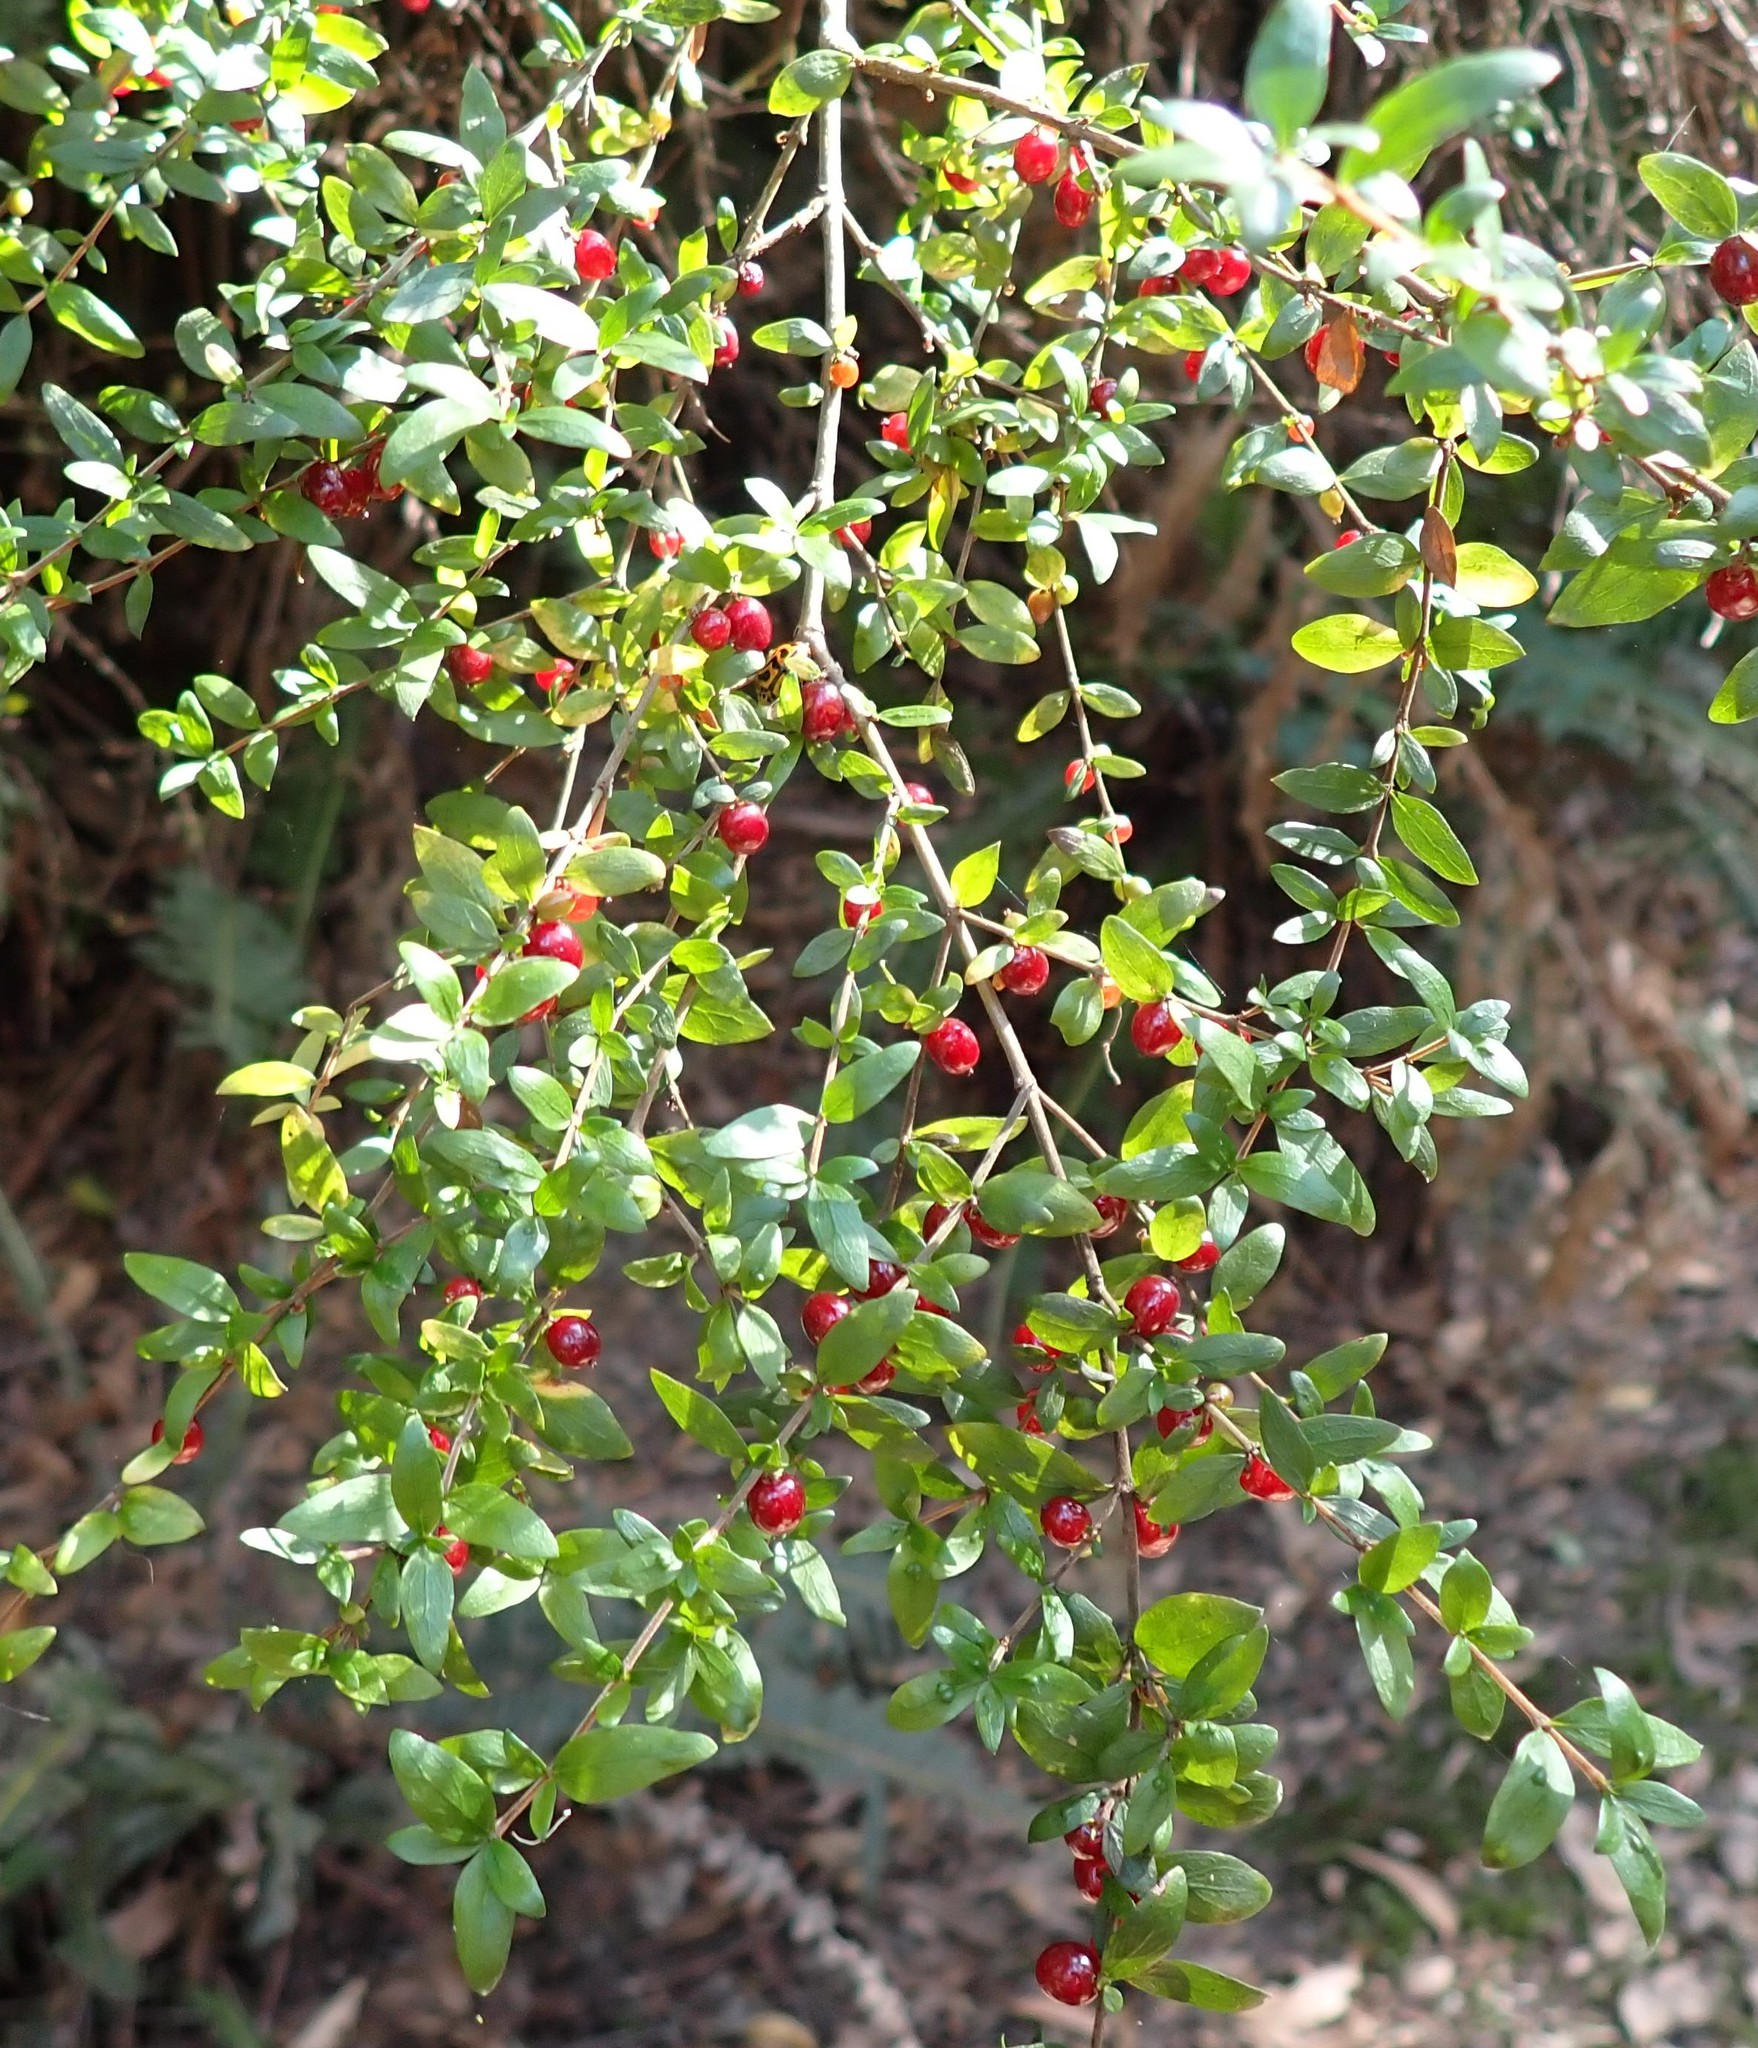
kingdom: Plantae
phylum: Tracheophyta
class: Magnoliopsida
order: Gentianales
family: Rubiaceae
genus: Coprosma
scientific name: Coprosma quadrifida
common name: Prickly currantbush
